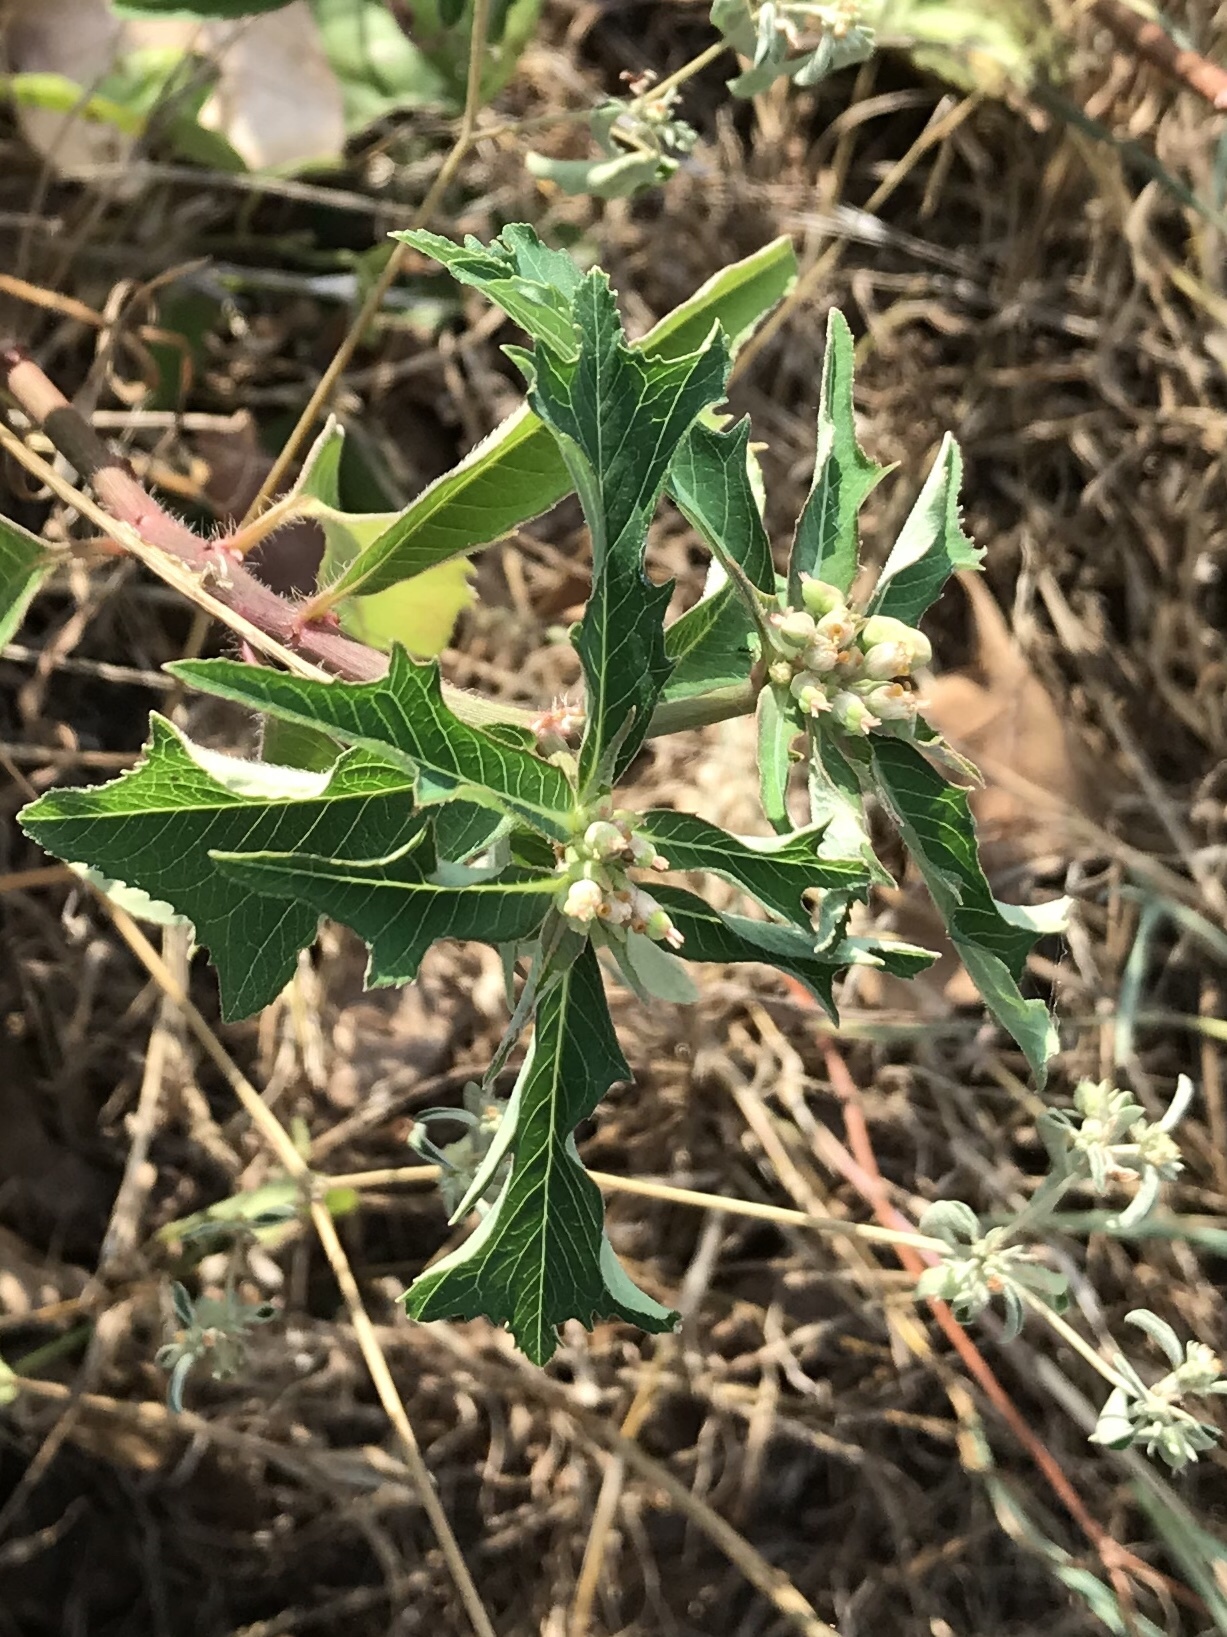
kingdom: Plantae
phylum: Tracheophyta
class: Magnoliopsida
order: Malpighiales
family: Euphorbiaceae
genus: Euphorbia
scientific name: Euphorbia heterophylla
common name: Mexican fireplant
